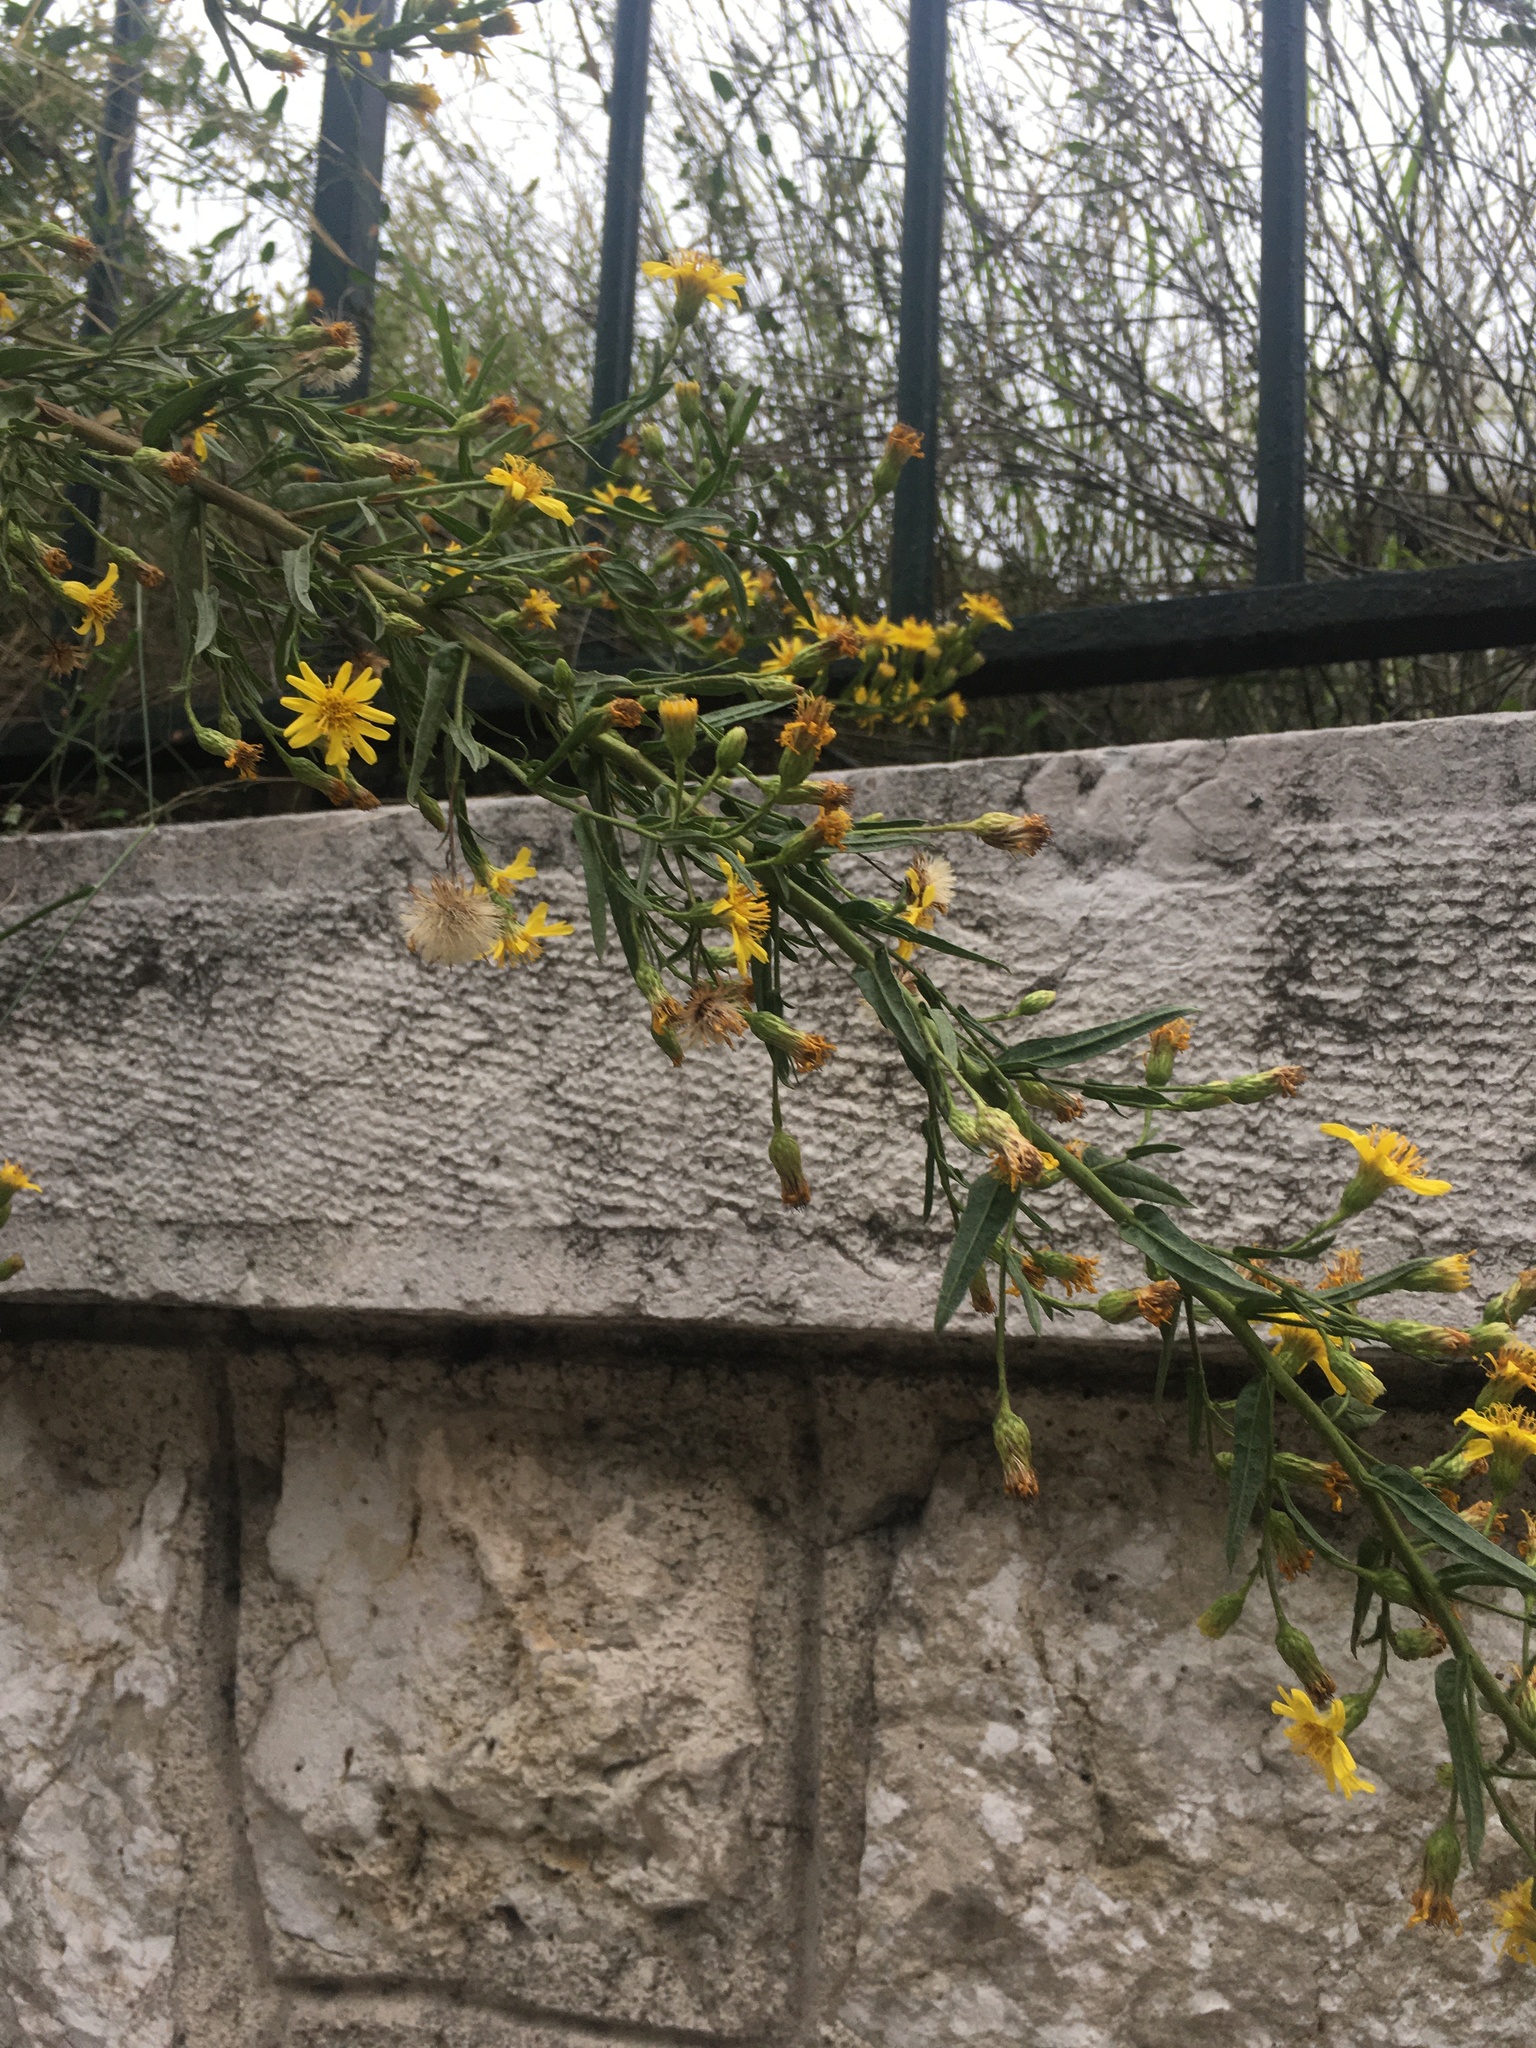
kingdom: Plantae
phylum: Tracheophyta
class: Magnoliopsida
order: Asterales
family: Asteraceae
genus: Dittrichia
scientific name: Dittrichia viscosa
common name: Woody fleabane
